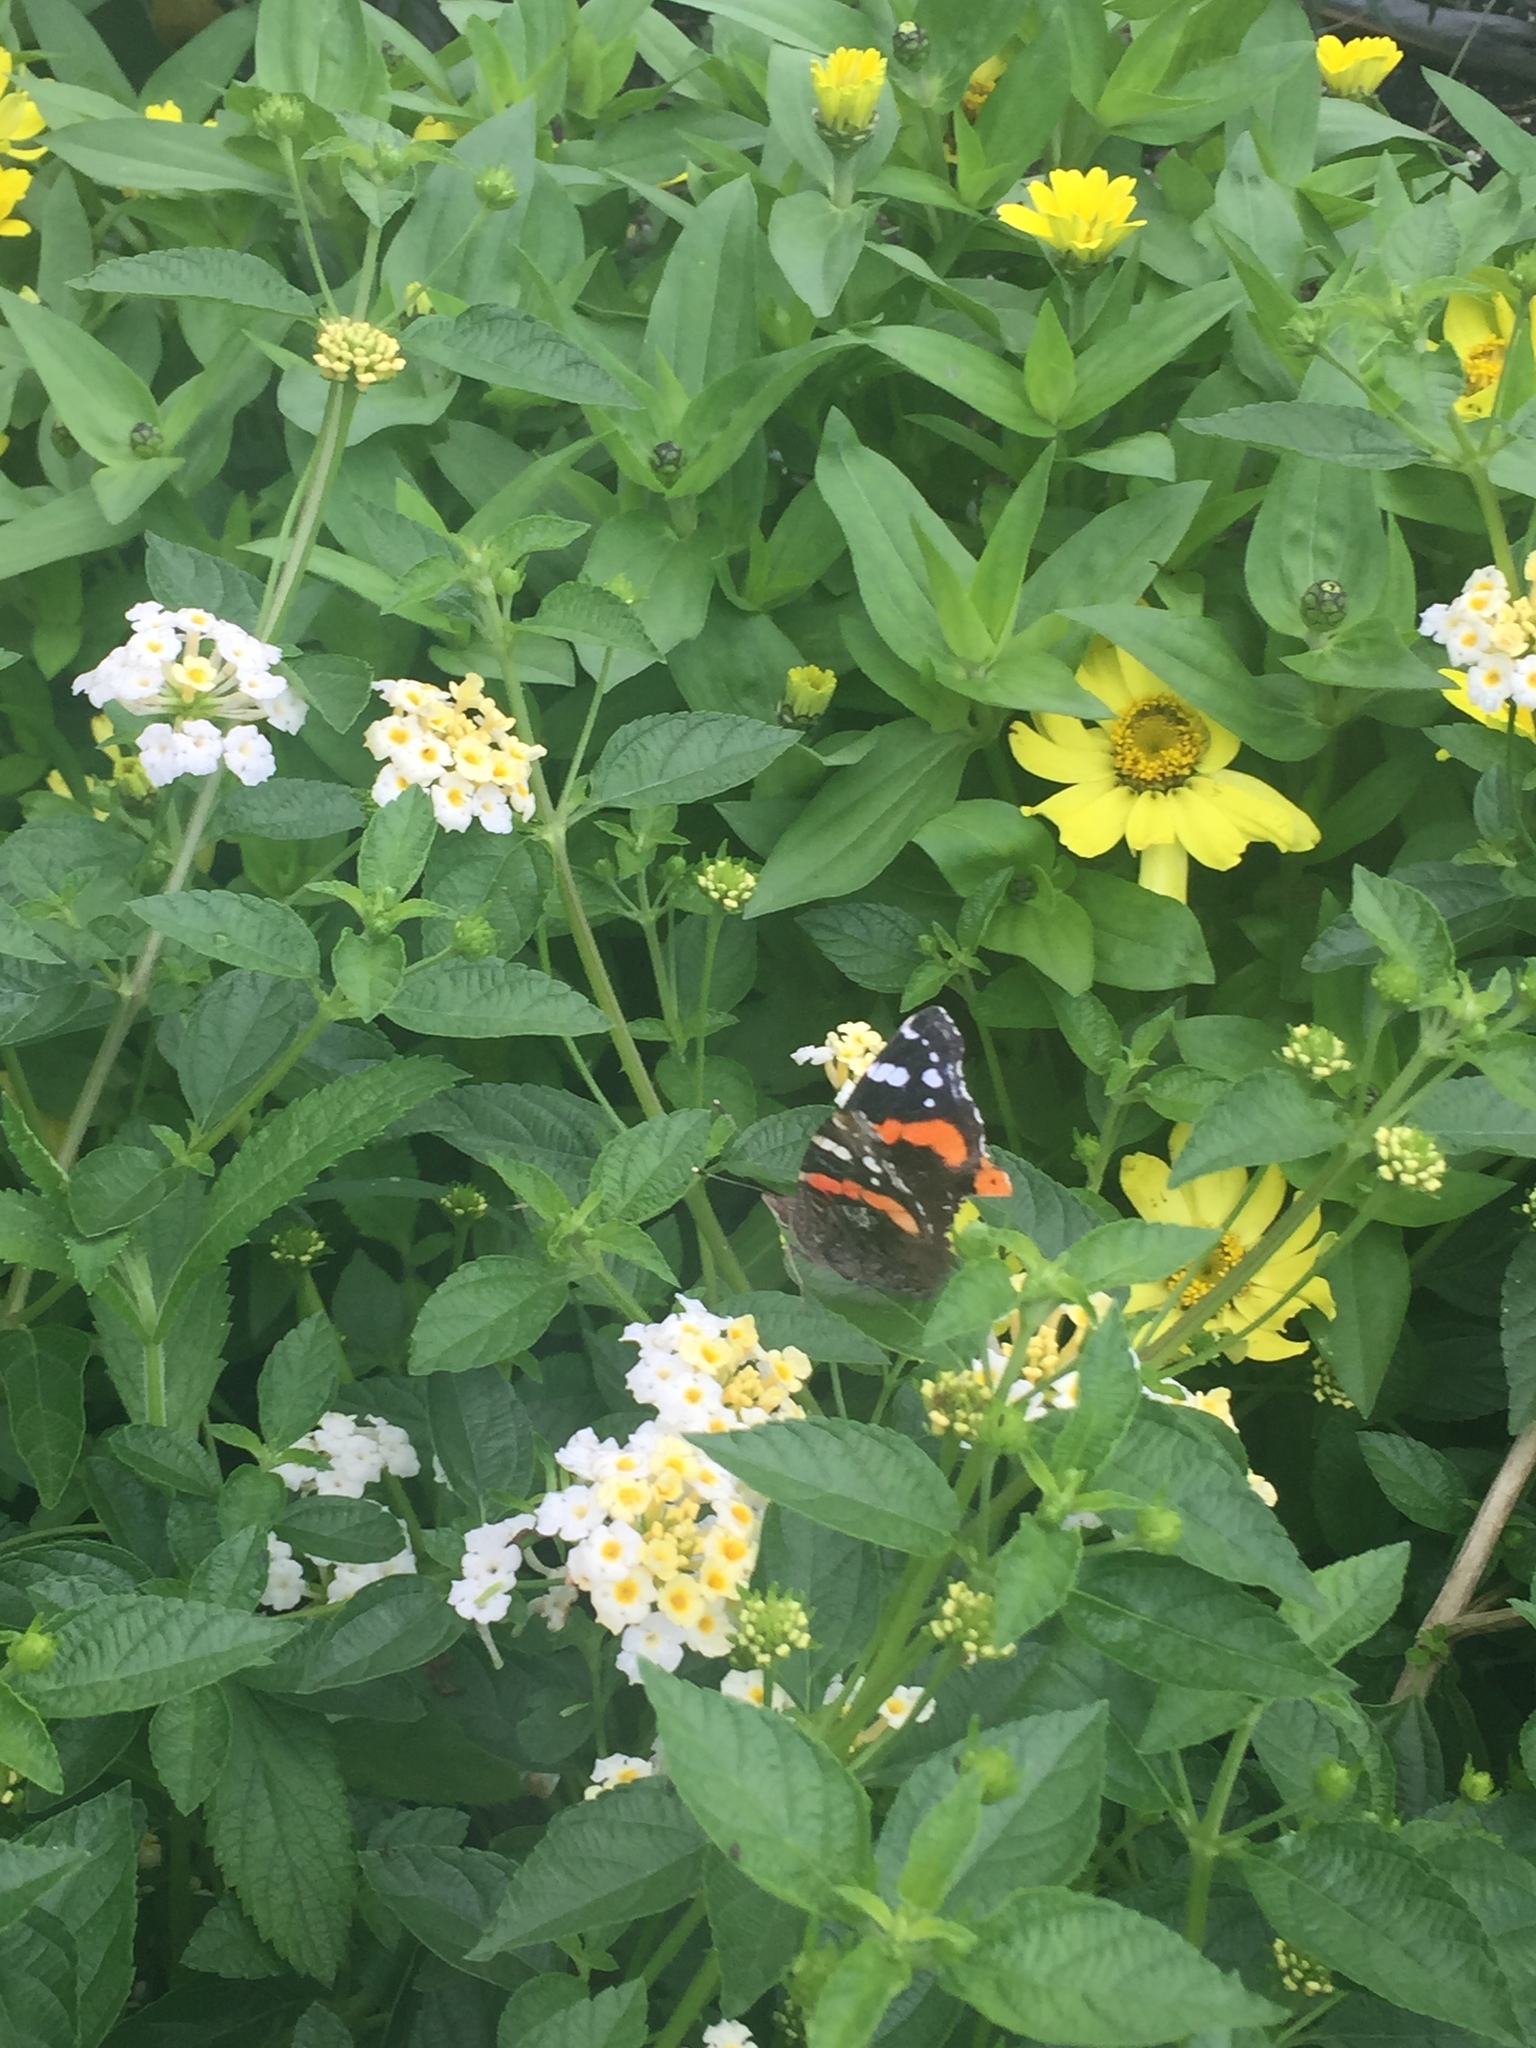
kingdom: Animalia
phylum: Arthropoda
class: Insecta
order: Lepidoptera
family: Nymphalidae
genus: Vanessa
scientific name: Vanessa atalanta
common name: Red admiral
